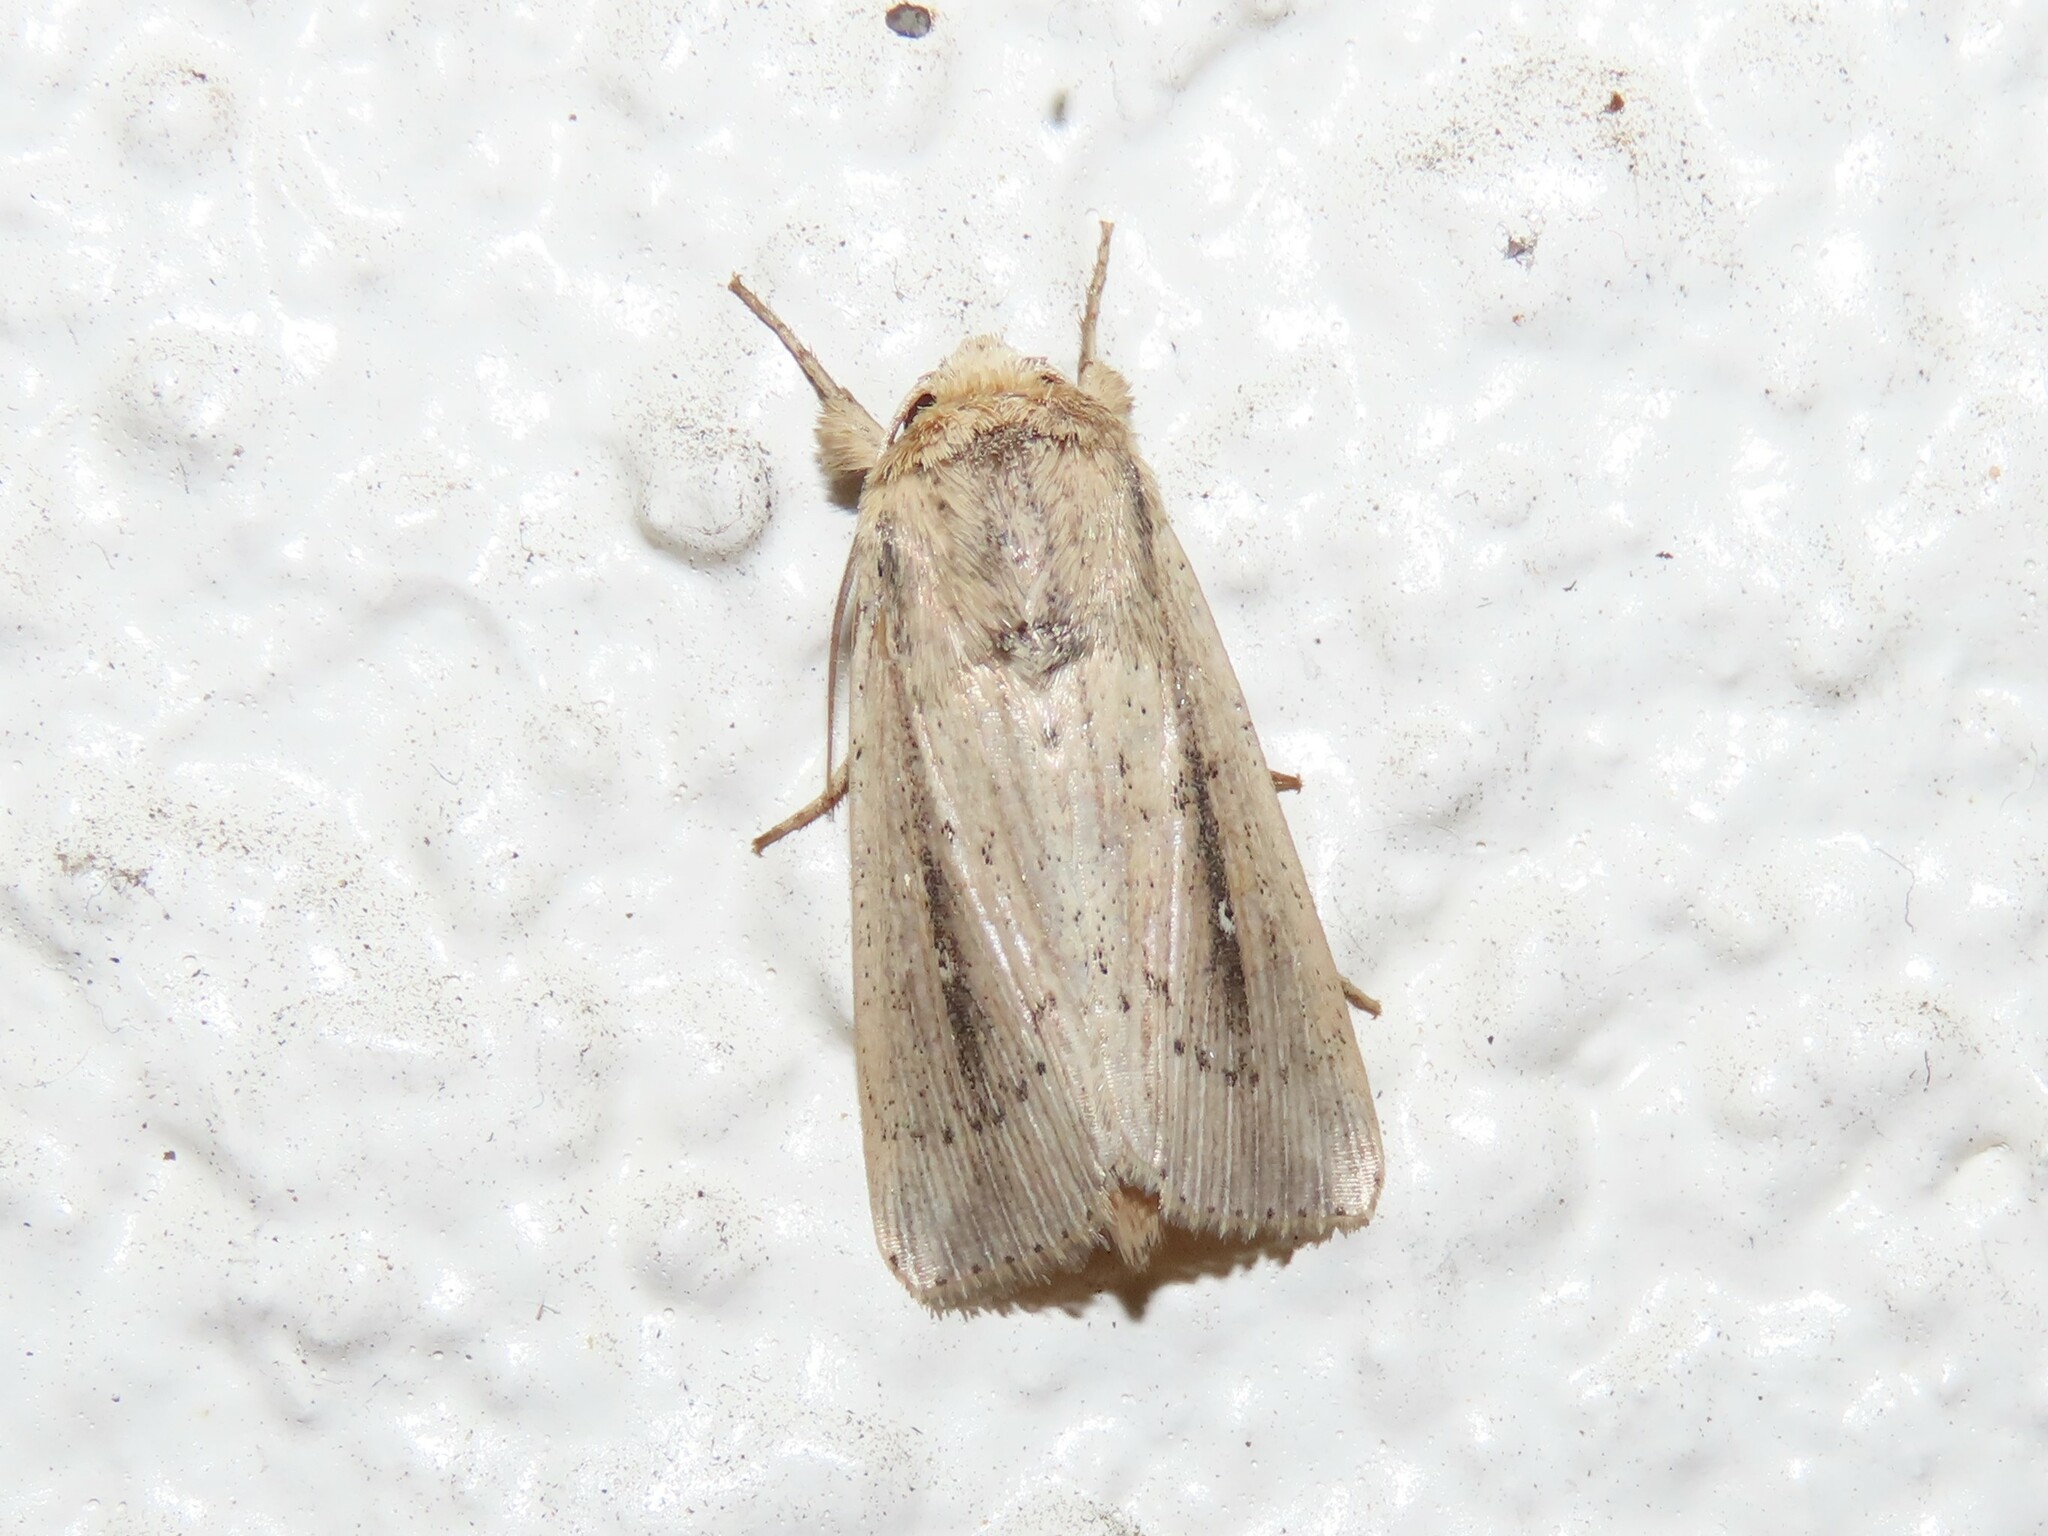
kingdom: Animalia
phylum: Arthropoda
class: Insecta
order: Lepidoptera
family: Noctuidae
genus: Leucania
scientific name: Leucania incognita
